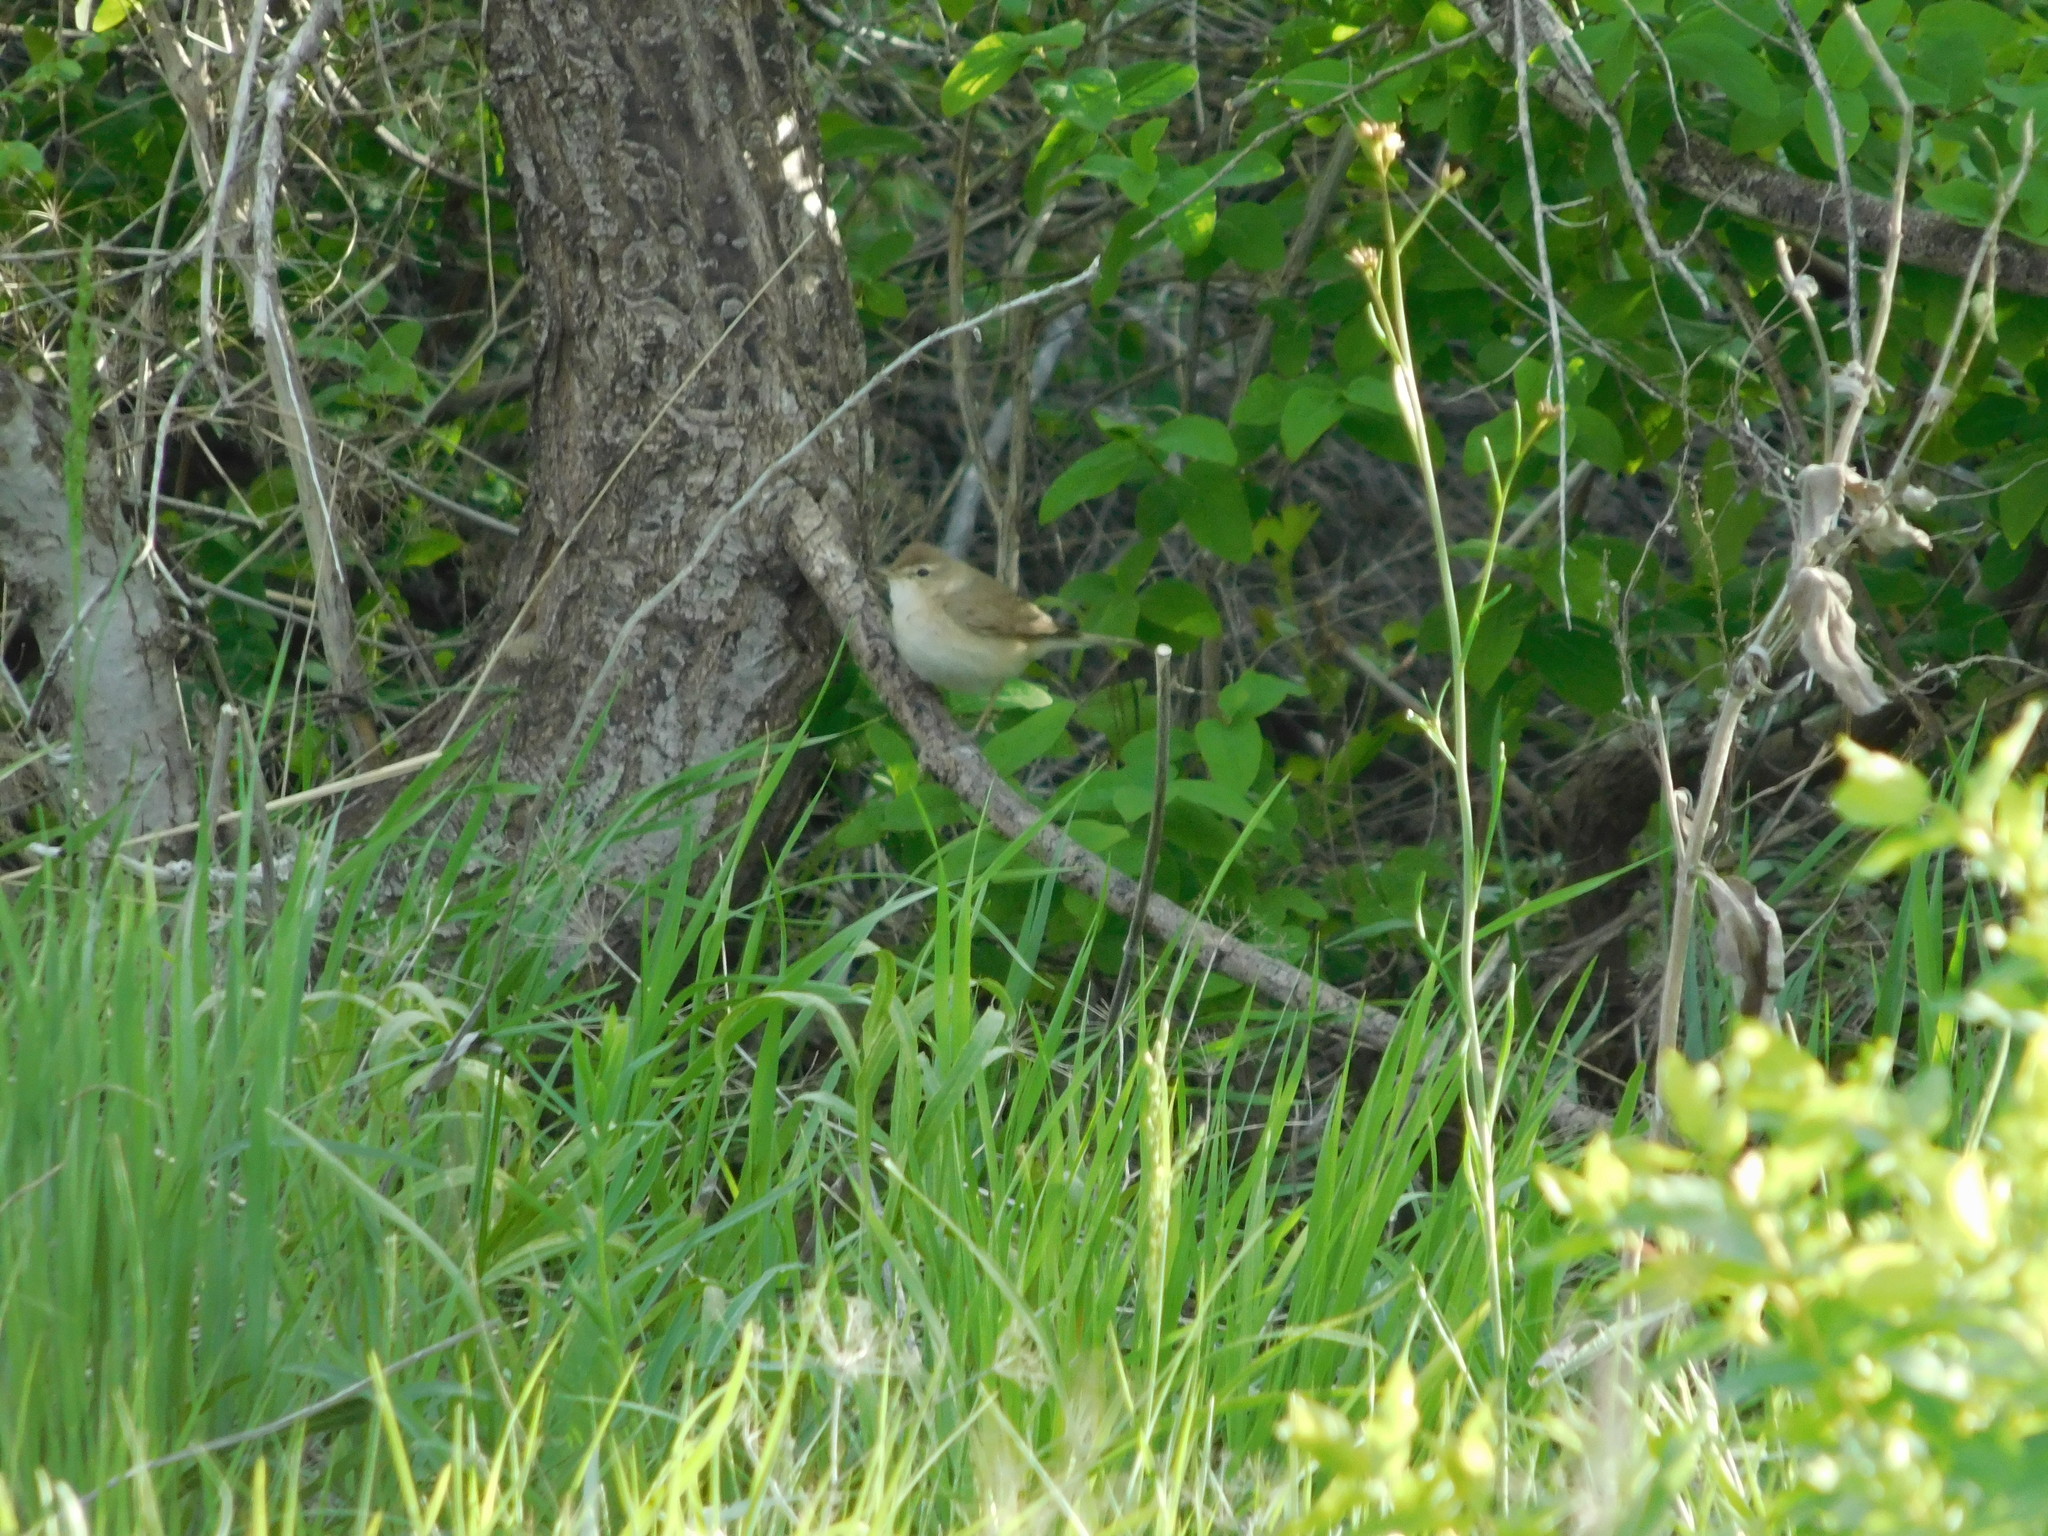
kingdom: Animalia
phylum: Chordata
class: Aves
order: Passeriformes
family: Acrocephalidae
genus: Iduna
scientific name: Iduna caligata
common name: Booted warbler
